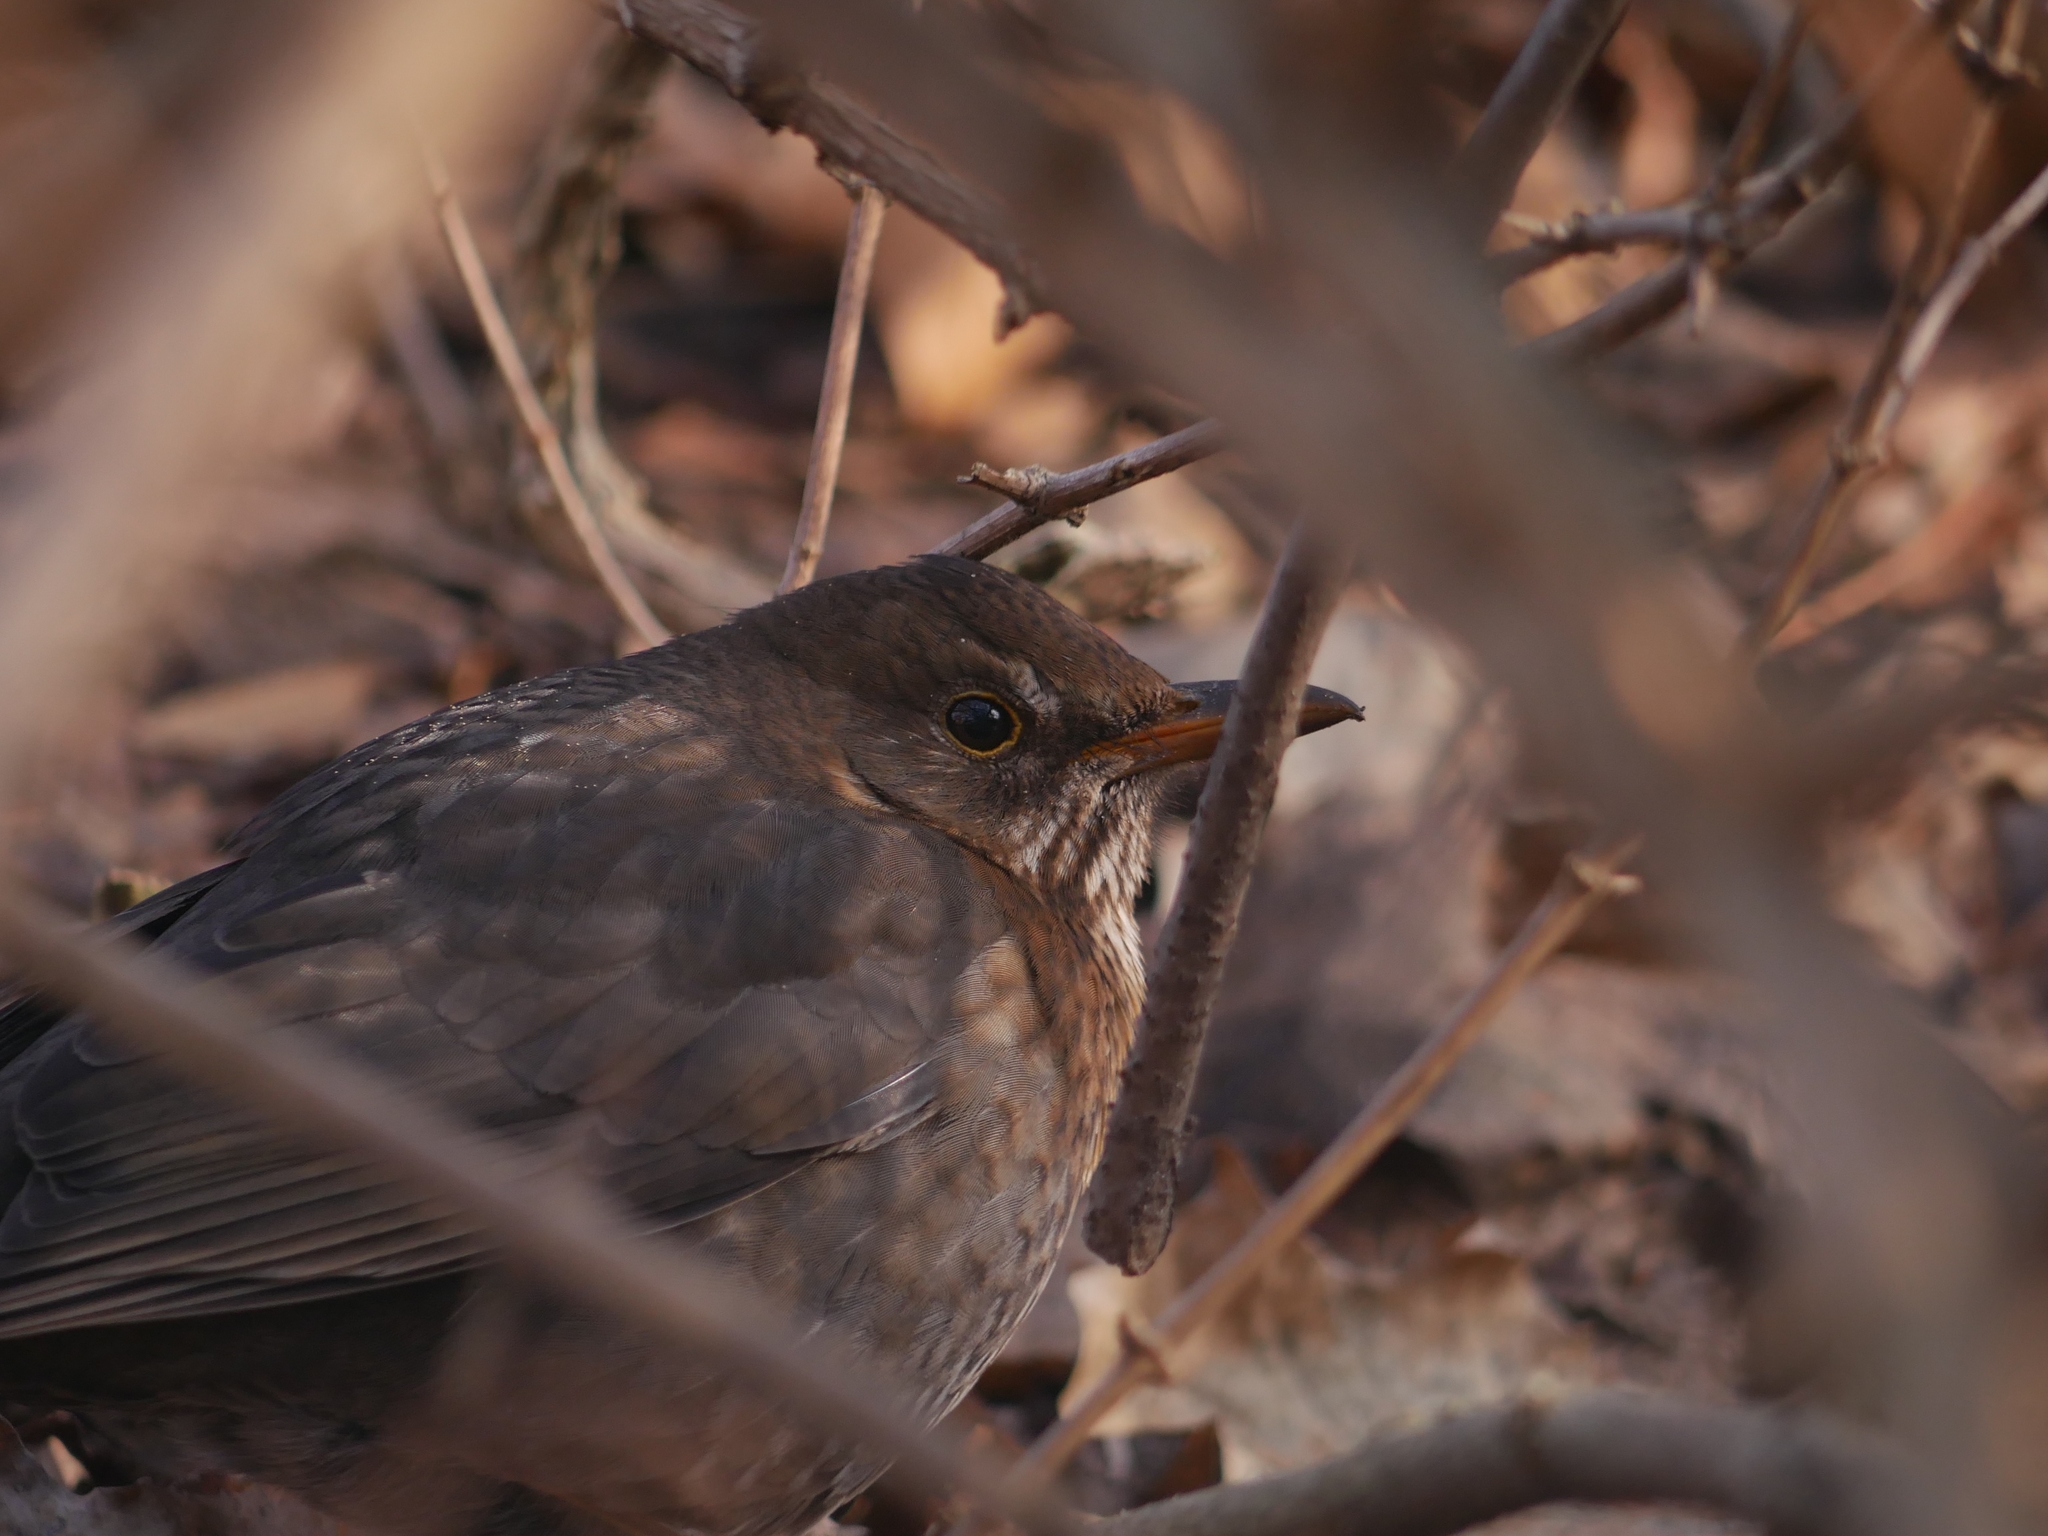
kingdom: Animalia
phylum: Chordata
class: Aves
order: Passeriformes
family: Turdidae
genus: Turdus
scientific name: Turdus merula
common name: Common blackbird
